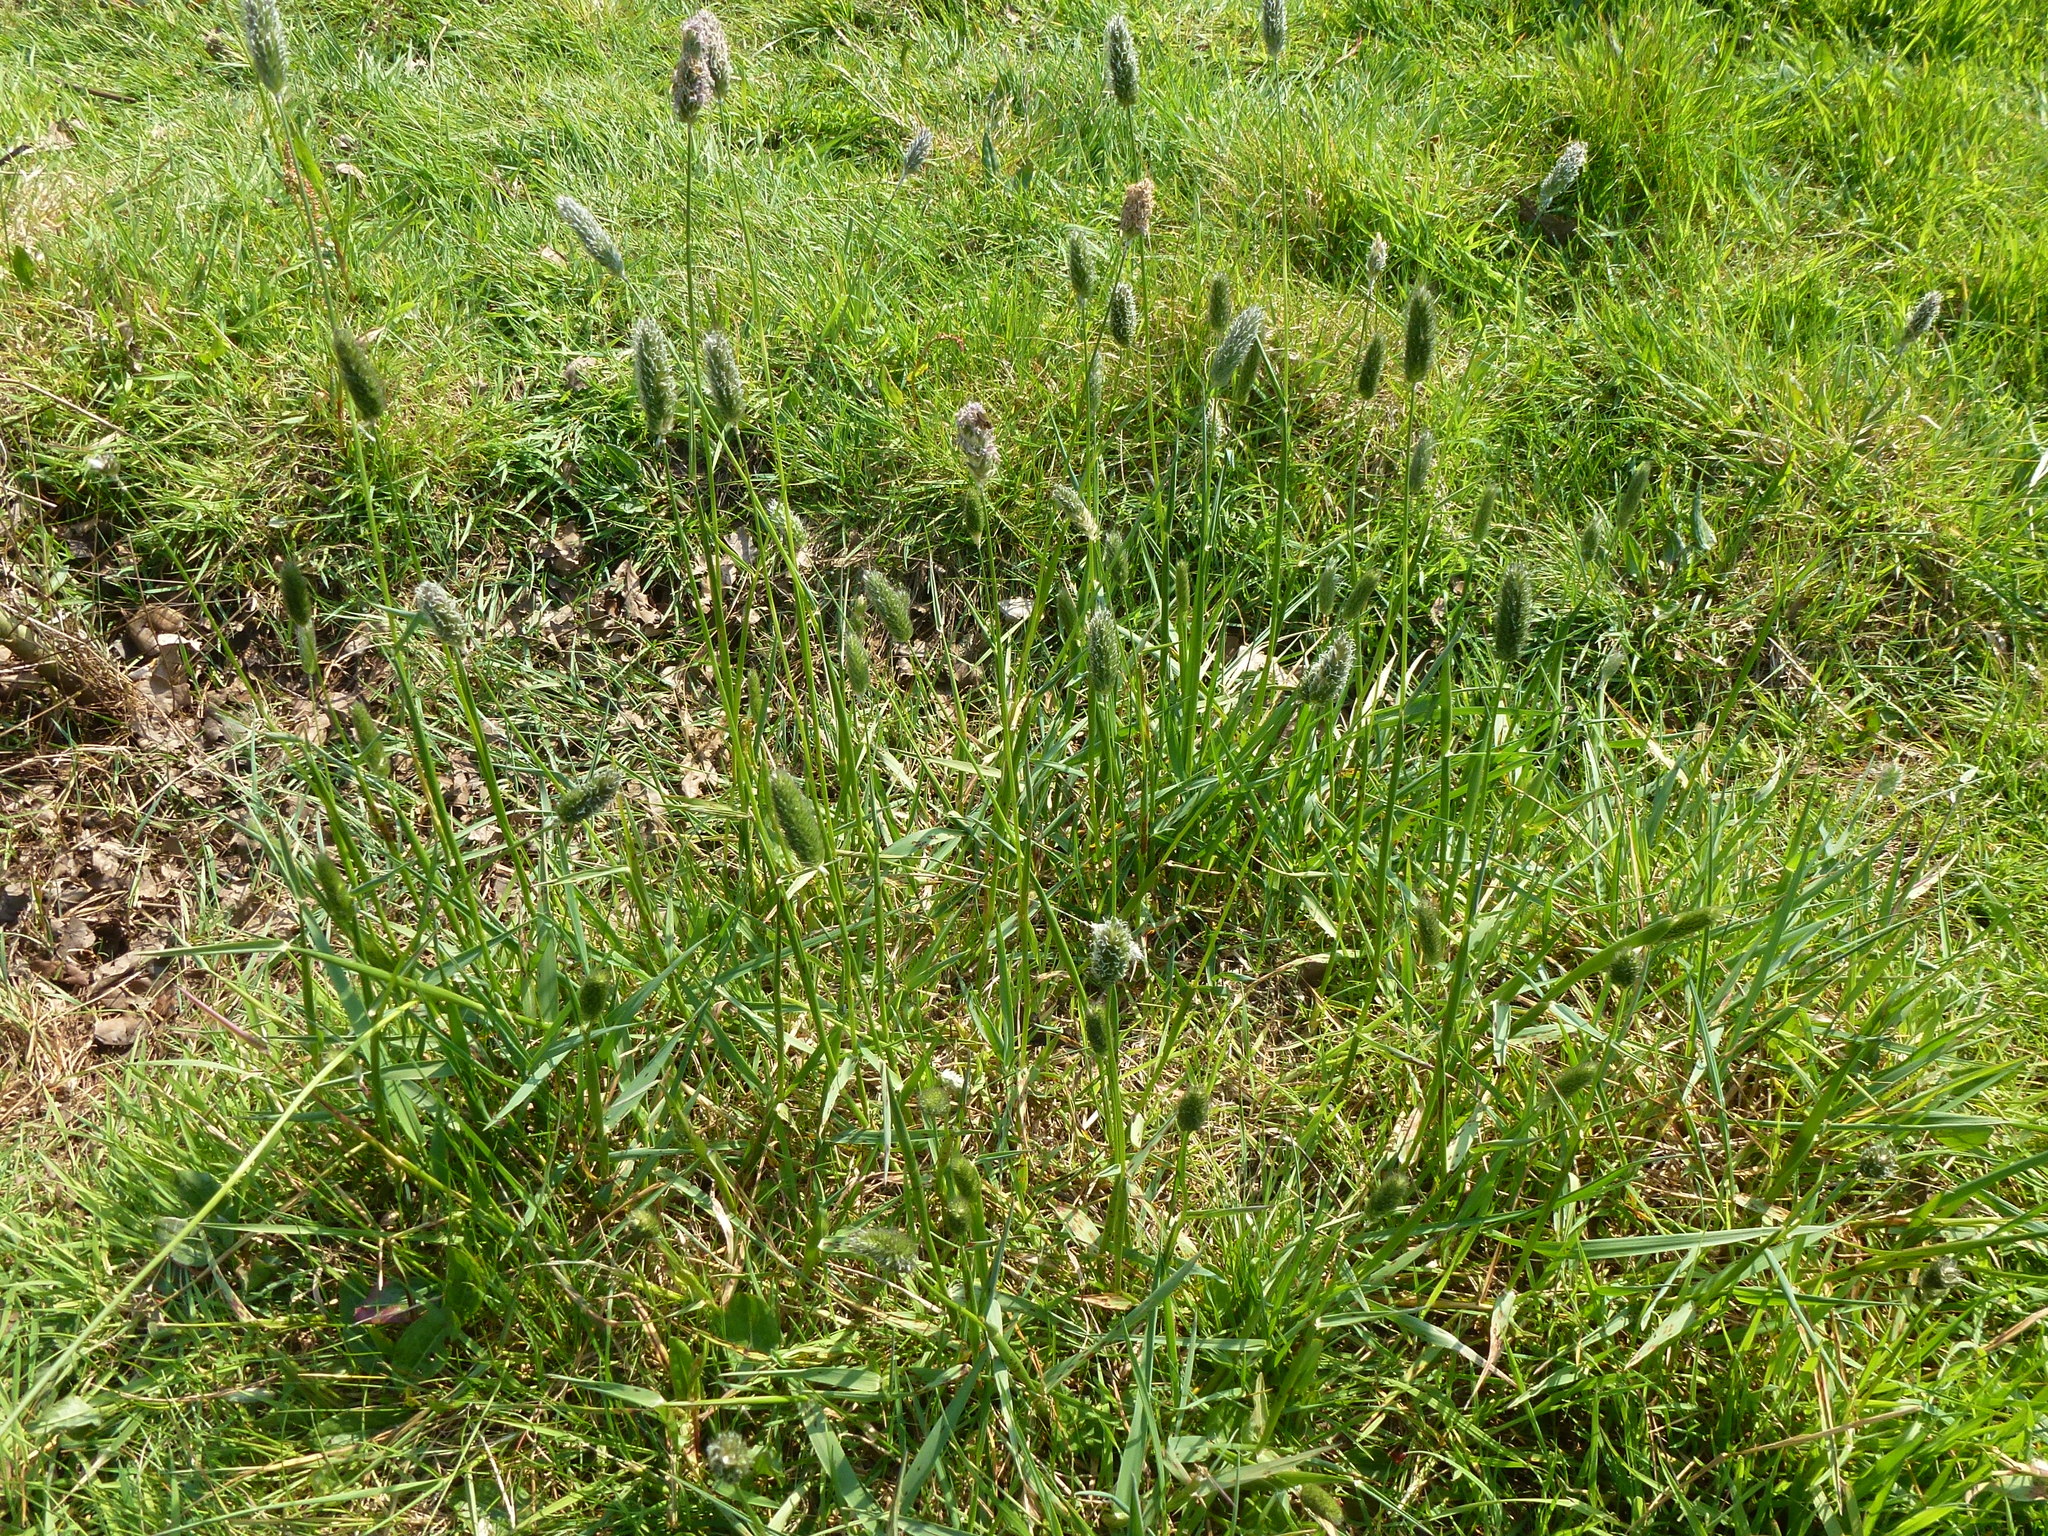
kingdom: Plantae
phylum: Tracheophyta
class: Liliopsida
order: Poales
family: Poaceae
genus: Alopecurus
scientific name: Alopecurus pratensis
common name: Meadow foxtail
